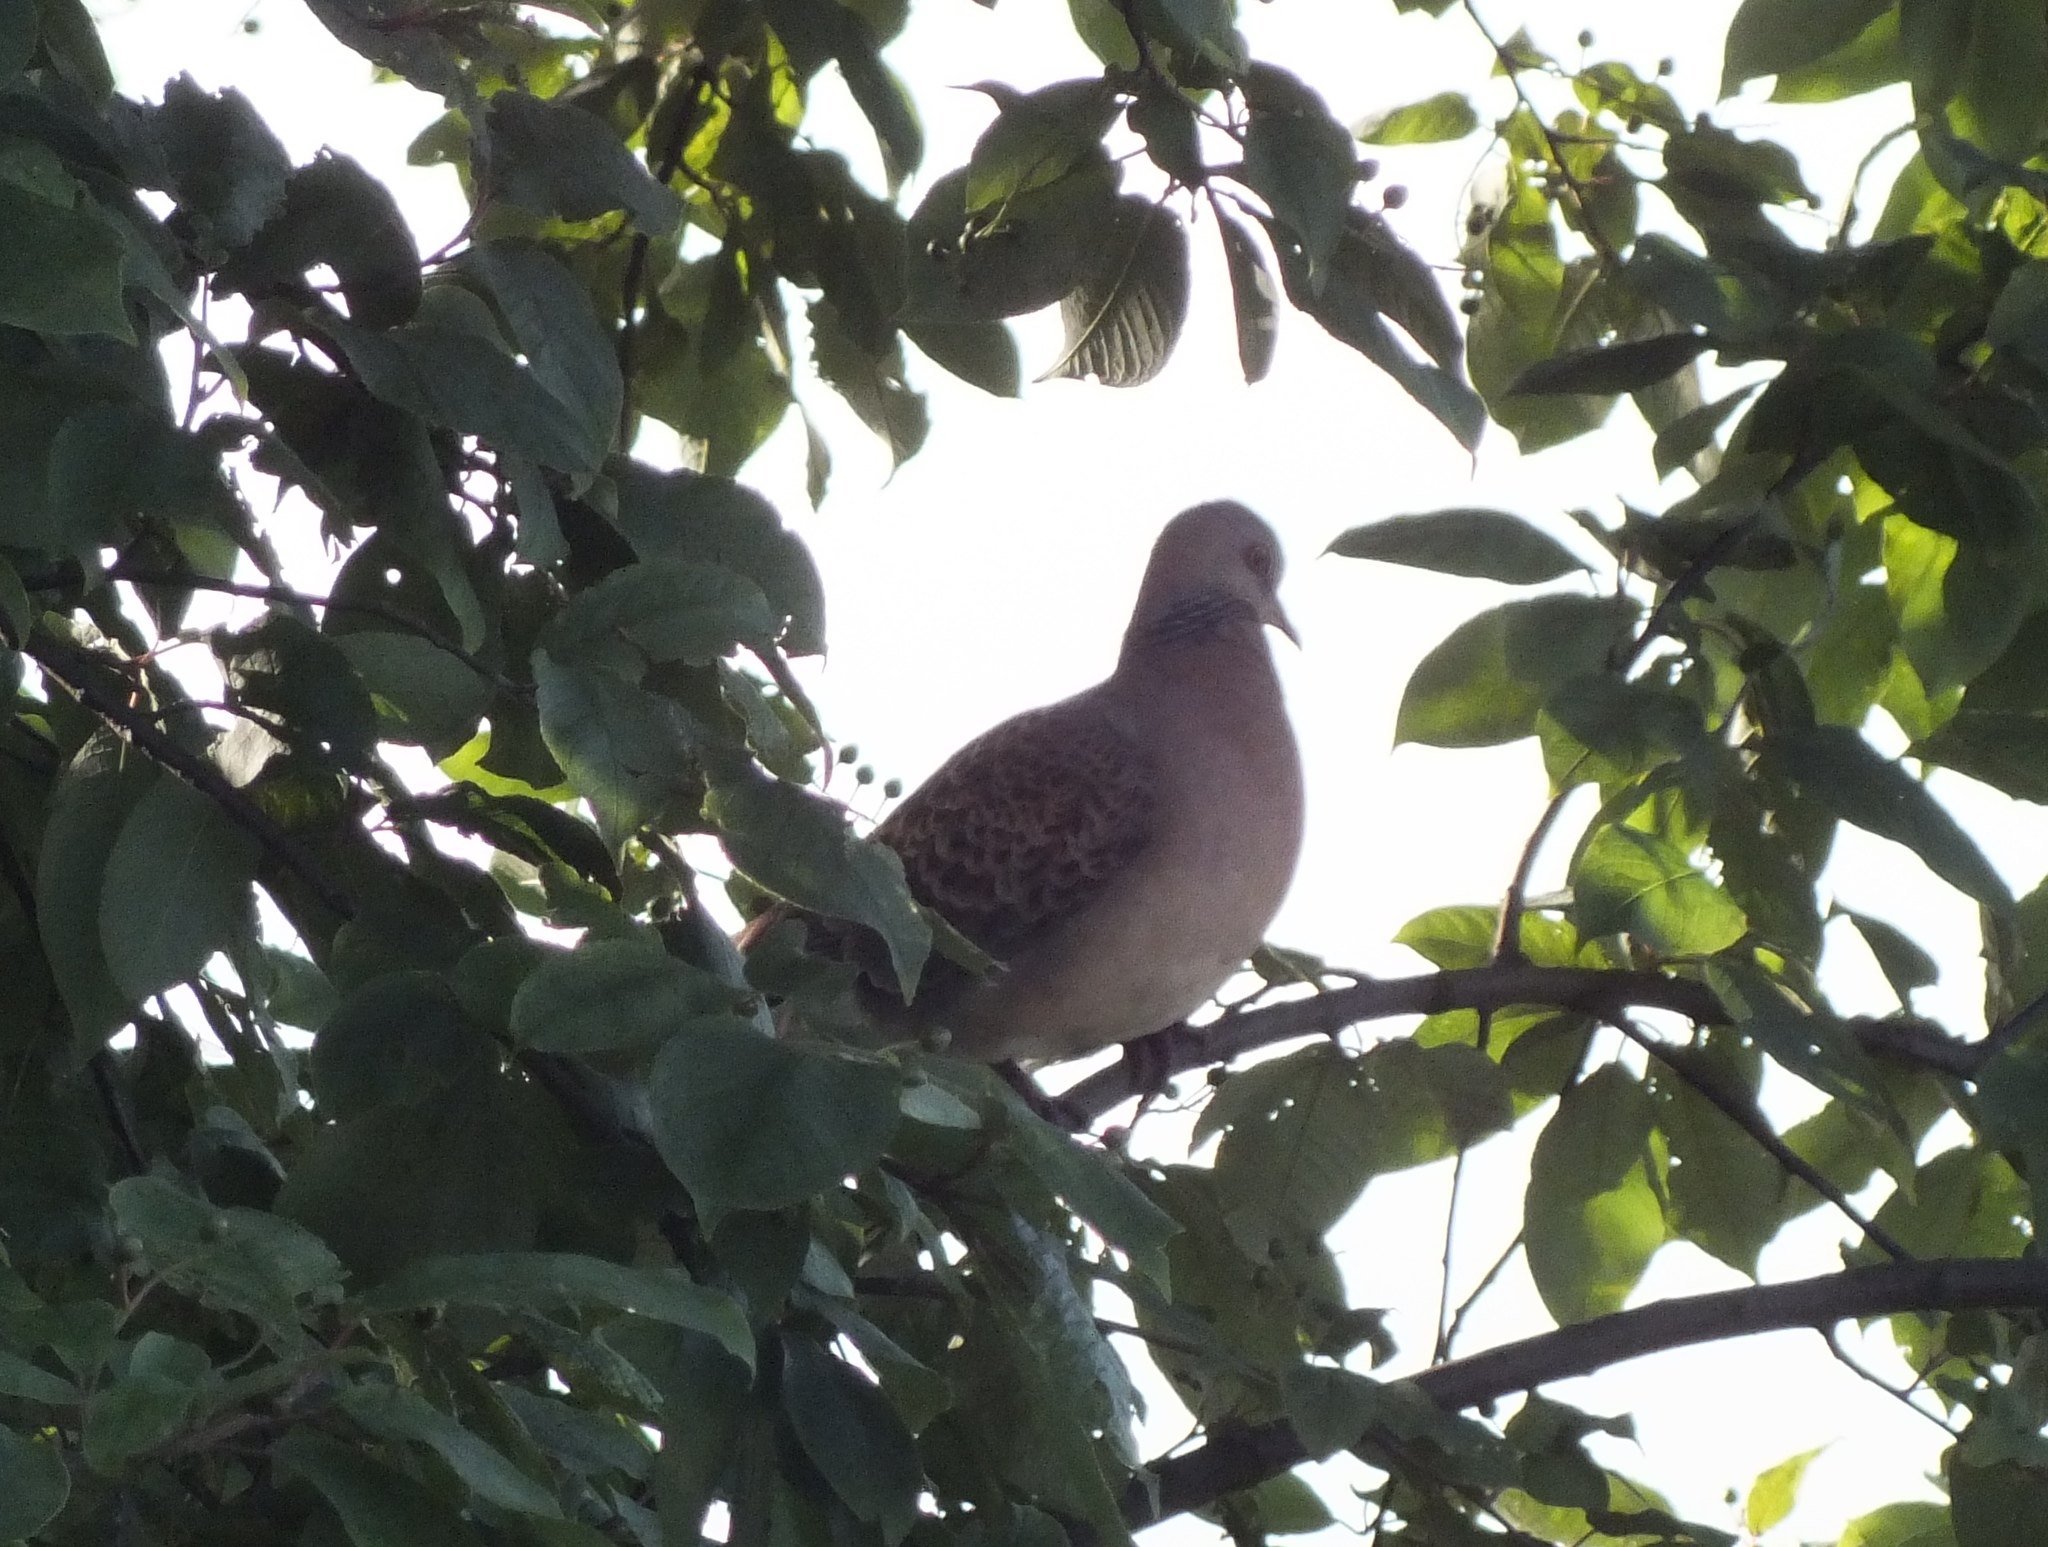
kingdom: Animalia
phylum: Chordata
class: Aves
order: Columbiformes
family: Columbidae
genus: Streptopelia
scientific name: Streptopelia orientalis
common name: Oriental turtle dove
